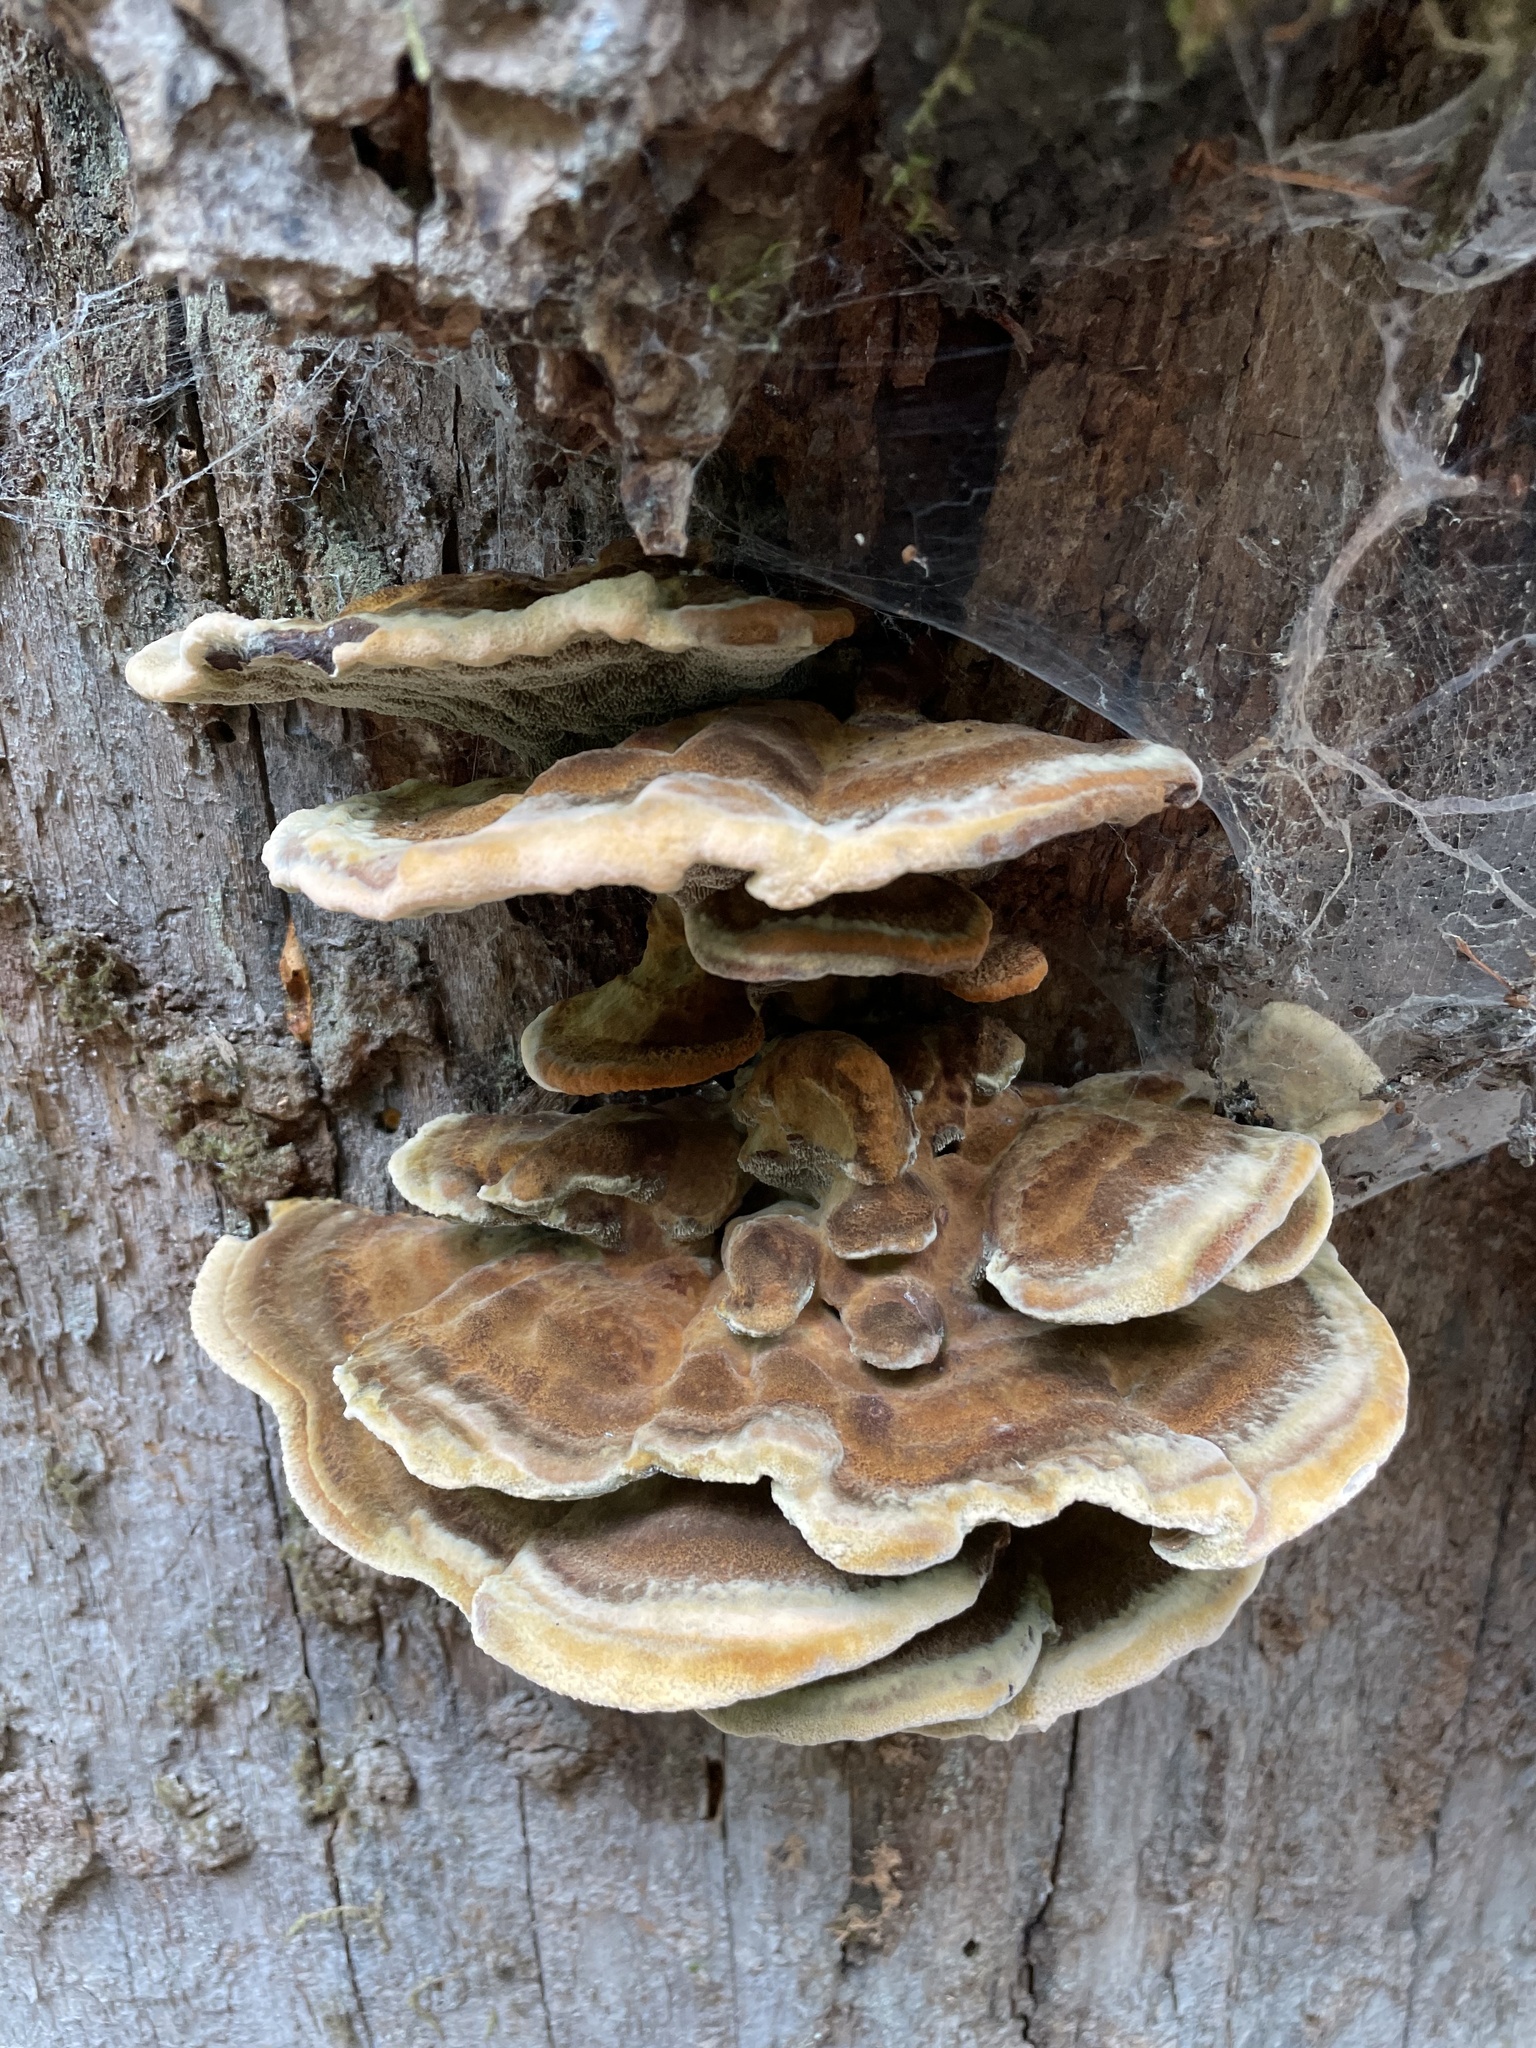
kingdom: Fungi
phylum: Basidiomycota
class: Agaricomycetes
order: Polyporales
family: Laetiporaceae
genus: Phaeolus
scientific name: Phaeolus schweinitzii
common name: Dyer's mazegill
